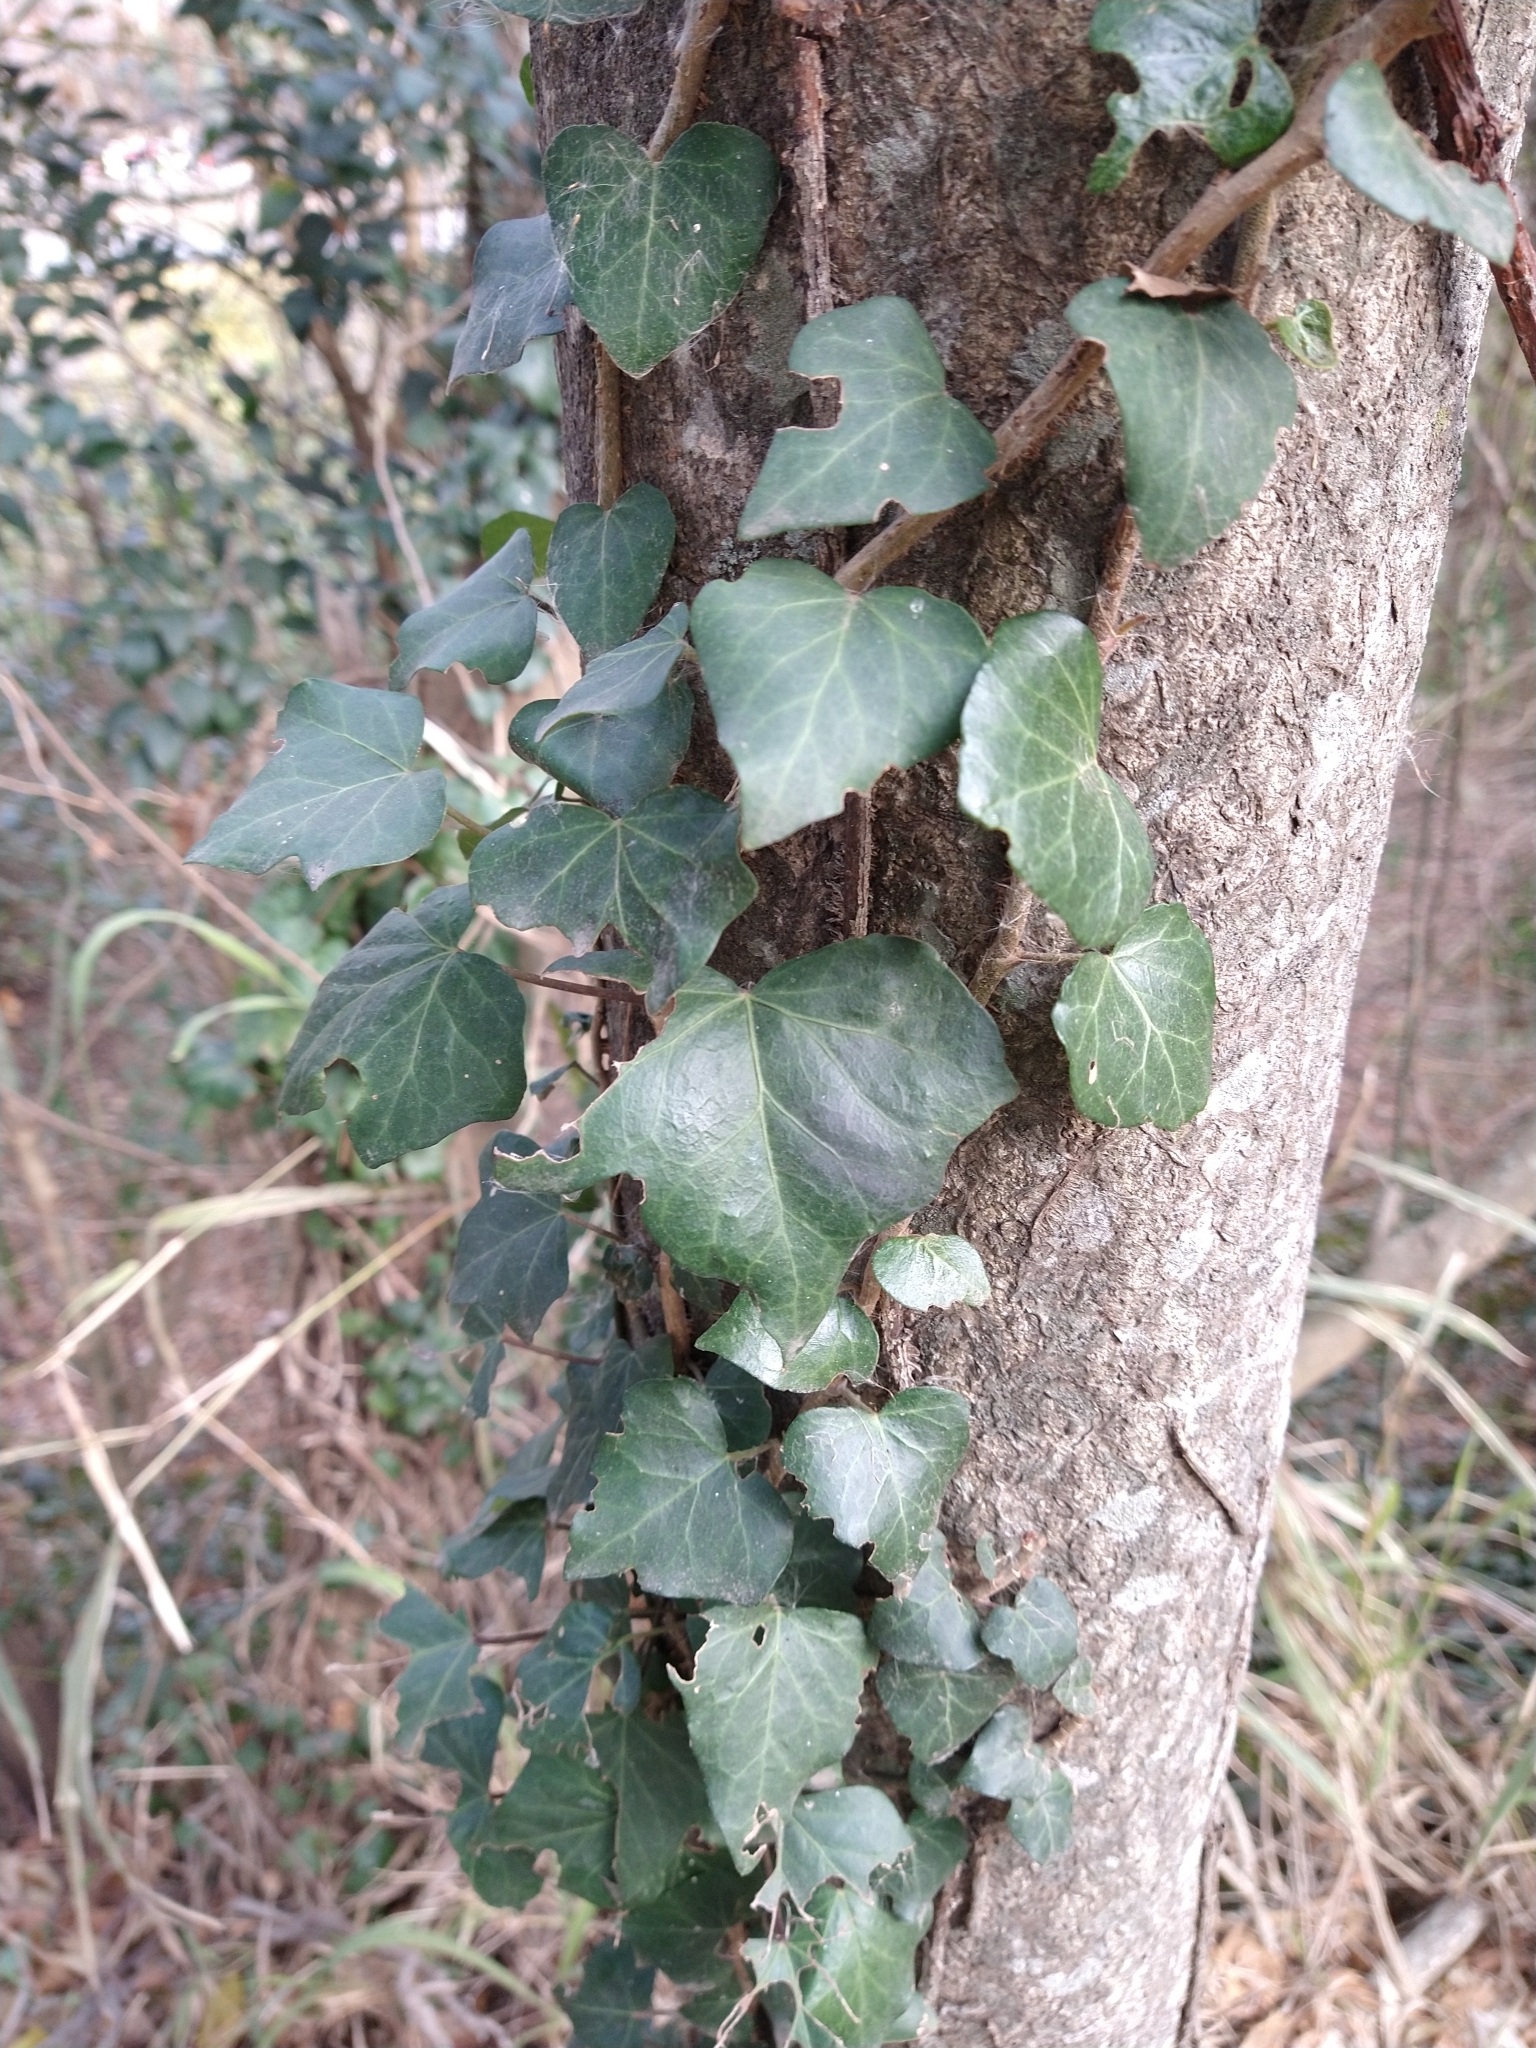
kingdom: Plantae
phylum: Tracheophyta
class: Magnoliopsida
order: Apiales
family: Araliaceae
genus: Hedera
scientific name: Hedera helix
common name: Ivy
